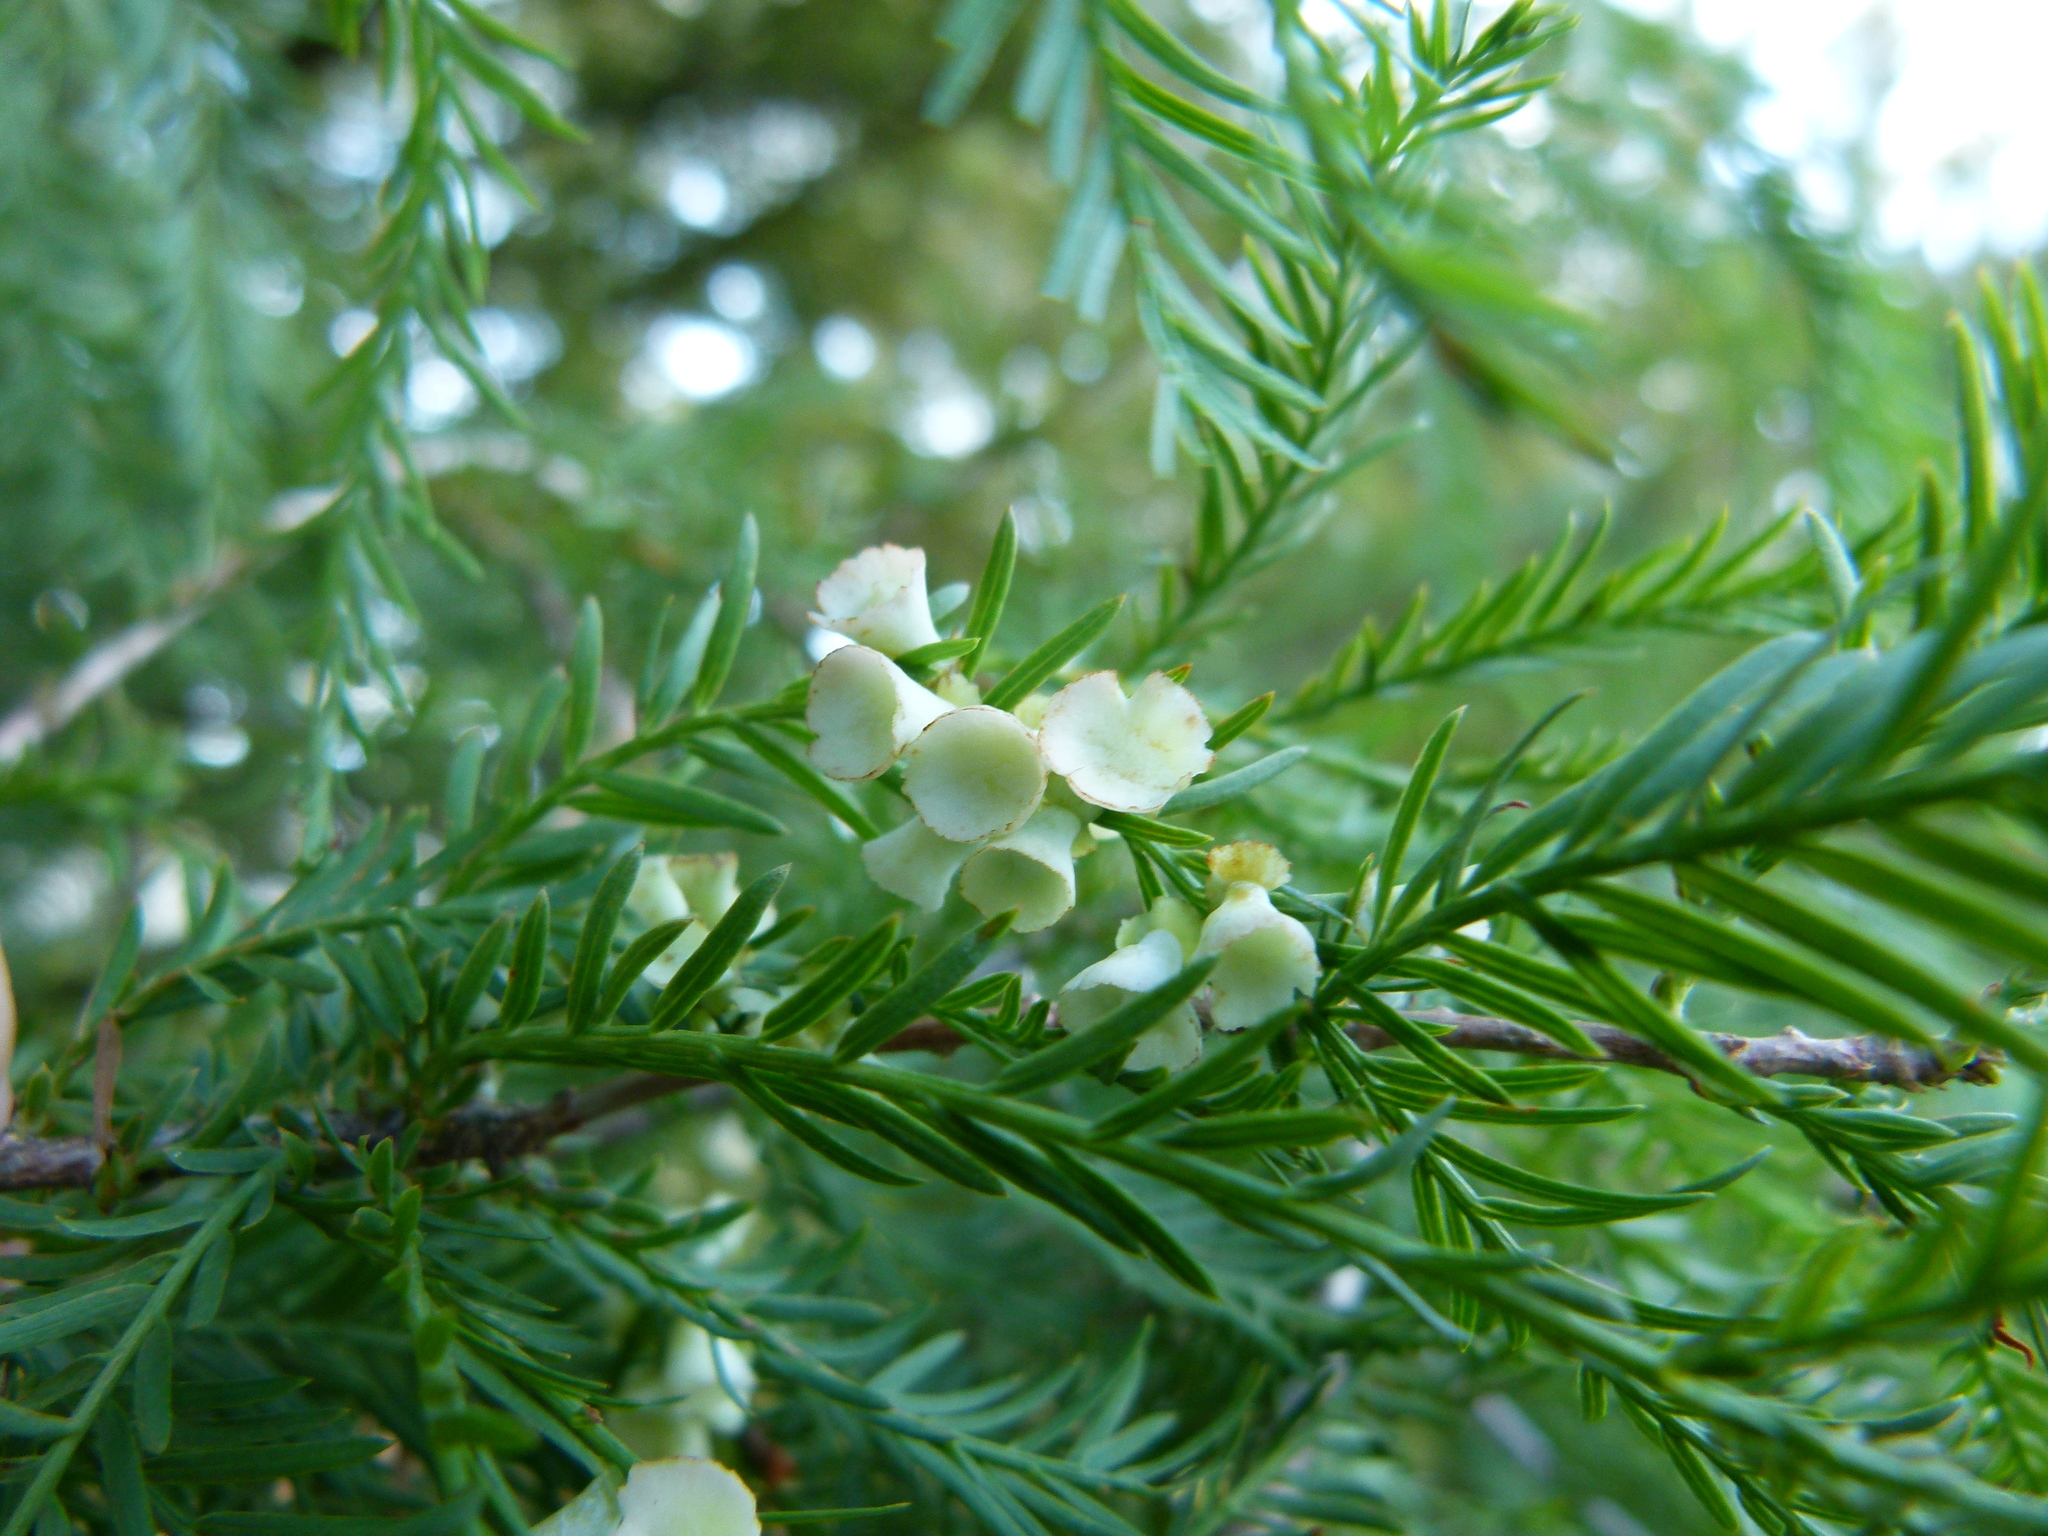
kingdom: Animalia
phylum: Arthropoda
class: Insecta
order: Diptera
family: Cecidomyiidae
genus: Taxodiomyia
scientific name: Taxodiomyia cupressi
